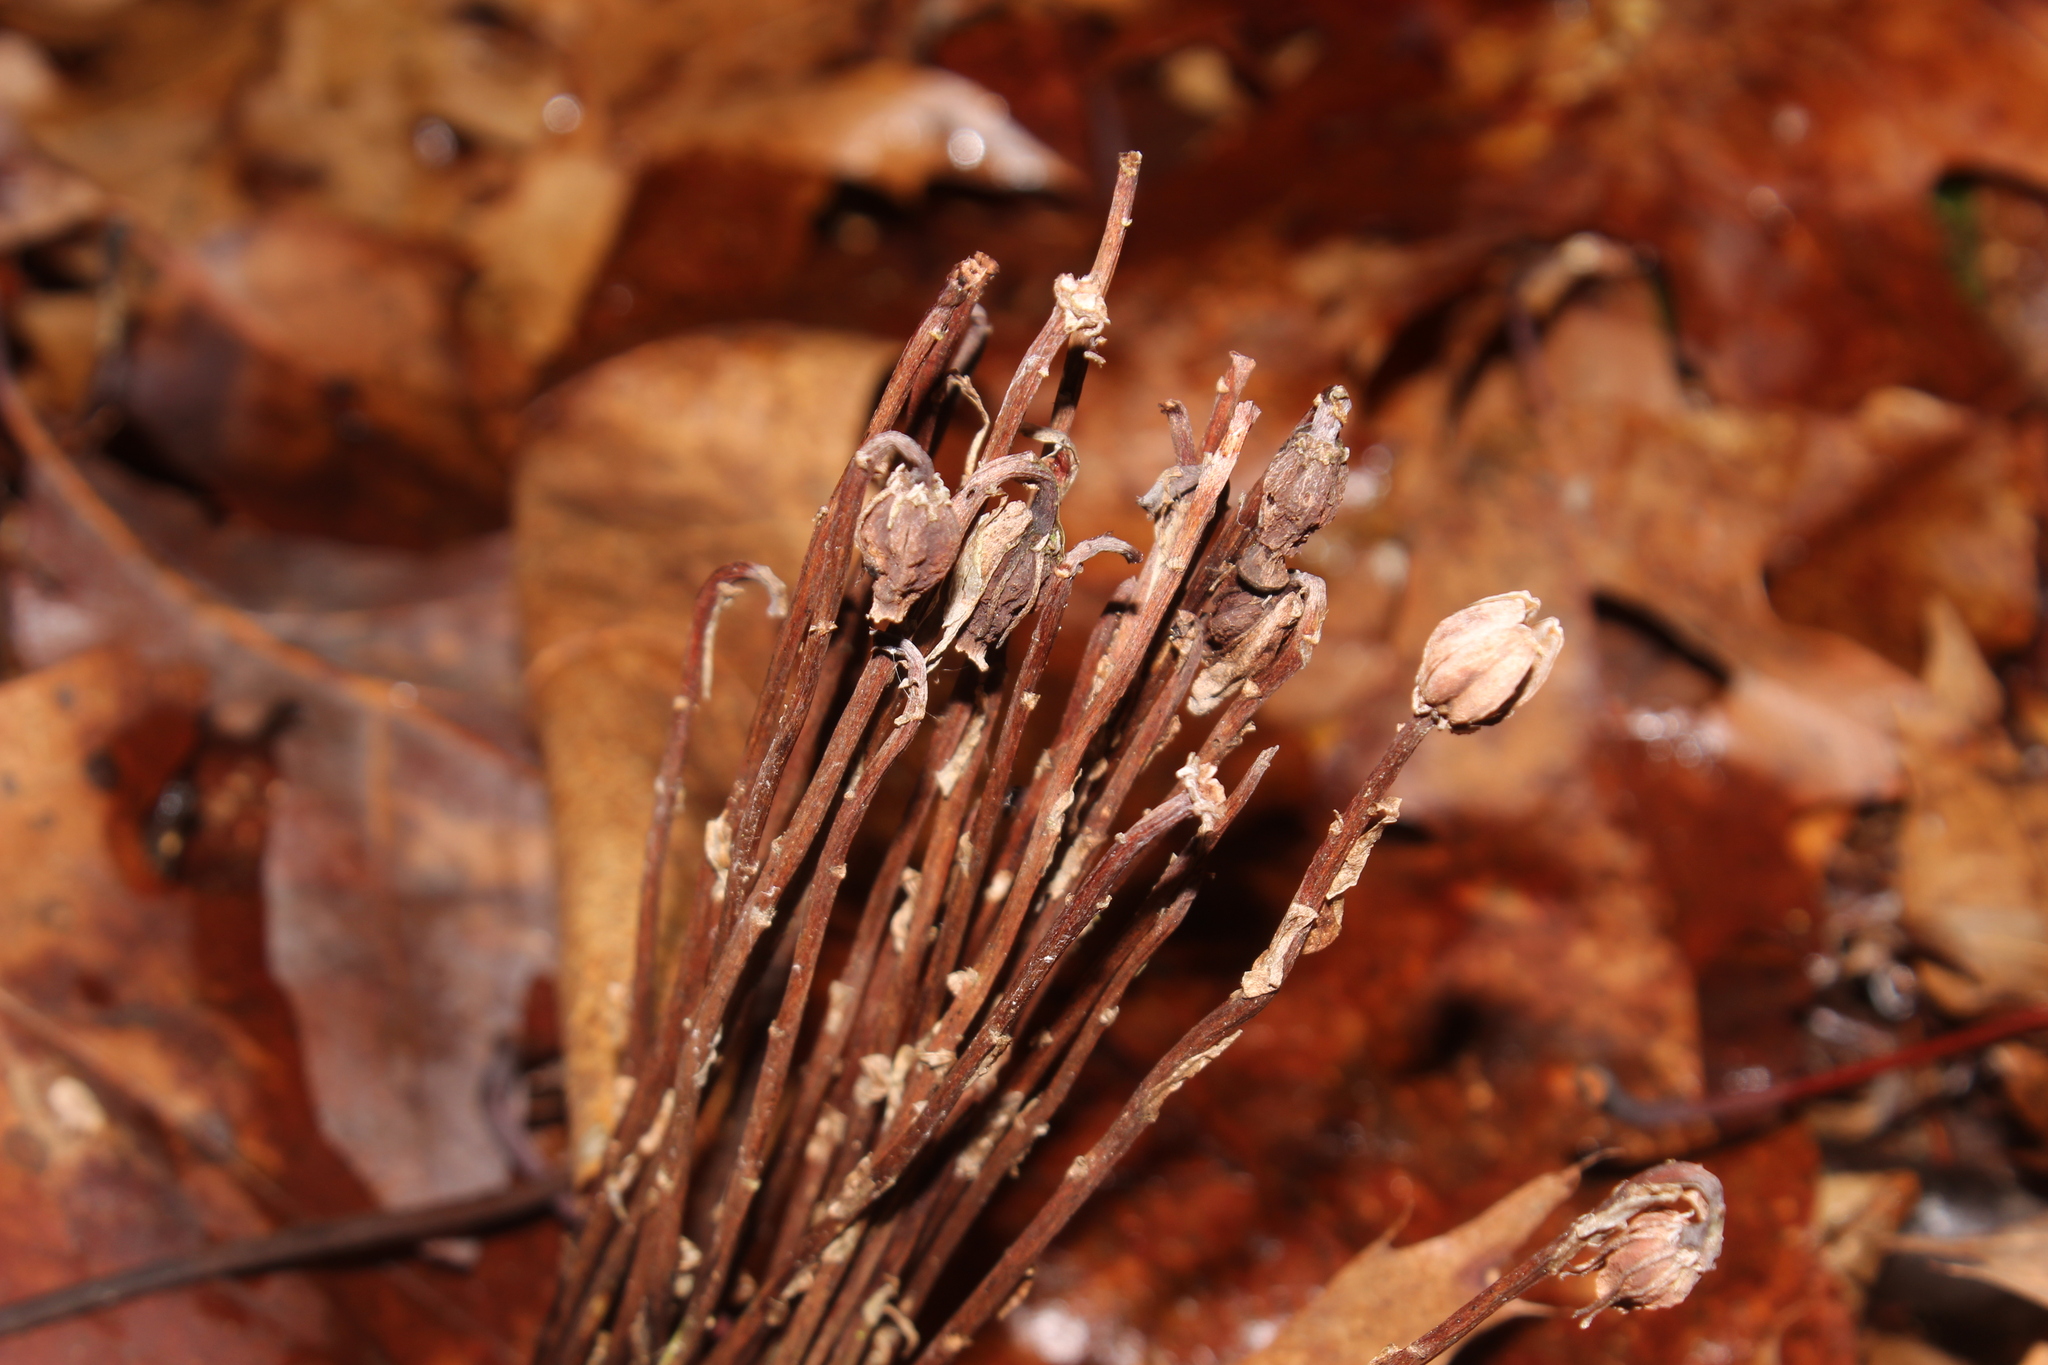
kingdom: Plantae
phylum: Tracheophyta
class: Magnoliopsida
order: Ericales
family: Ericaceae
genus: Monotropa
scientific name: Monotropa uniflora
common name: Convulsion root
